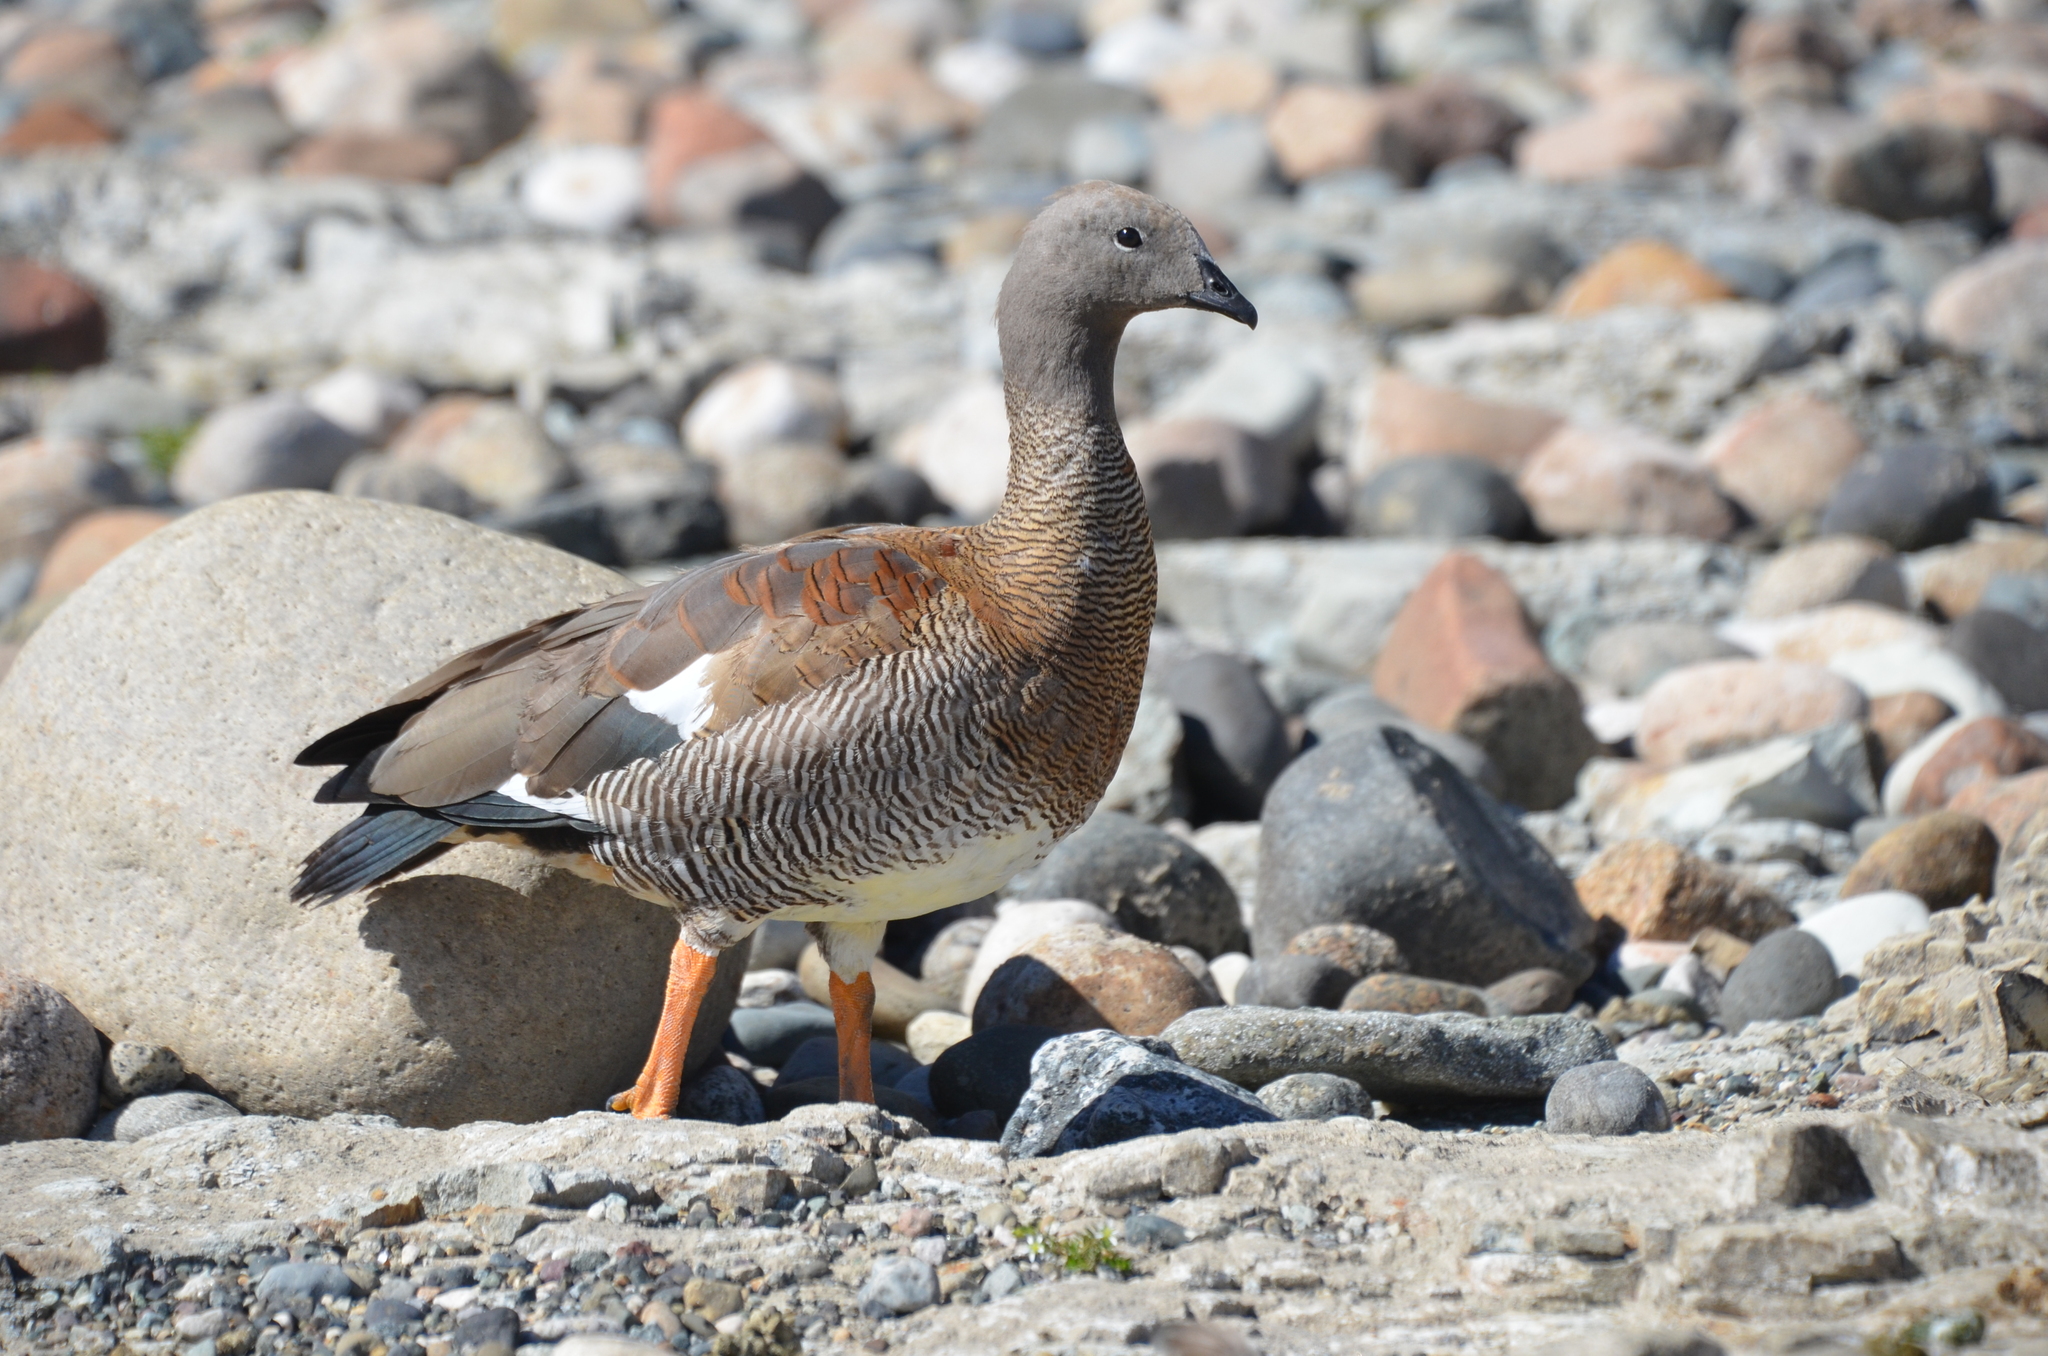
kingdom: Animalia
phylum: Chordata
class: Aves
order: Anseriformes
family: Anatidae
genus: Chloephaga
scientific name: Chloephaga poliocephala
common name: Ashy-headed goose
